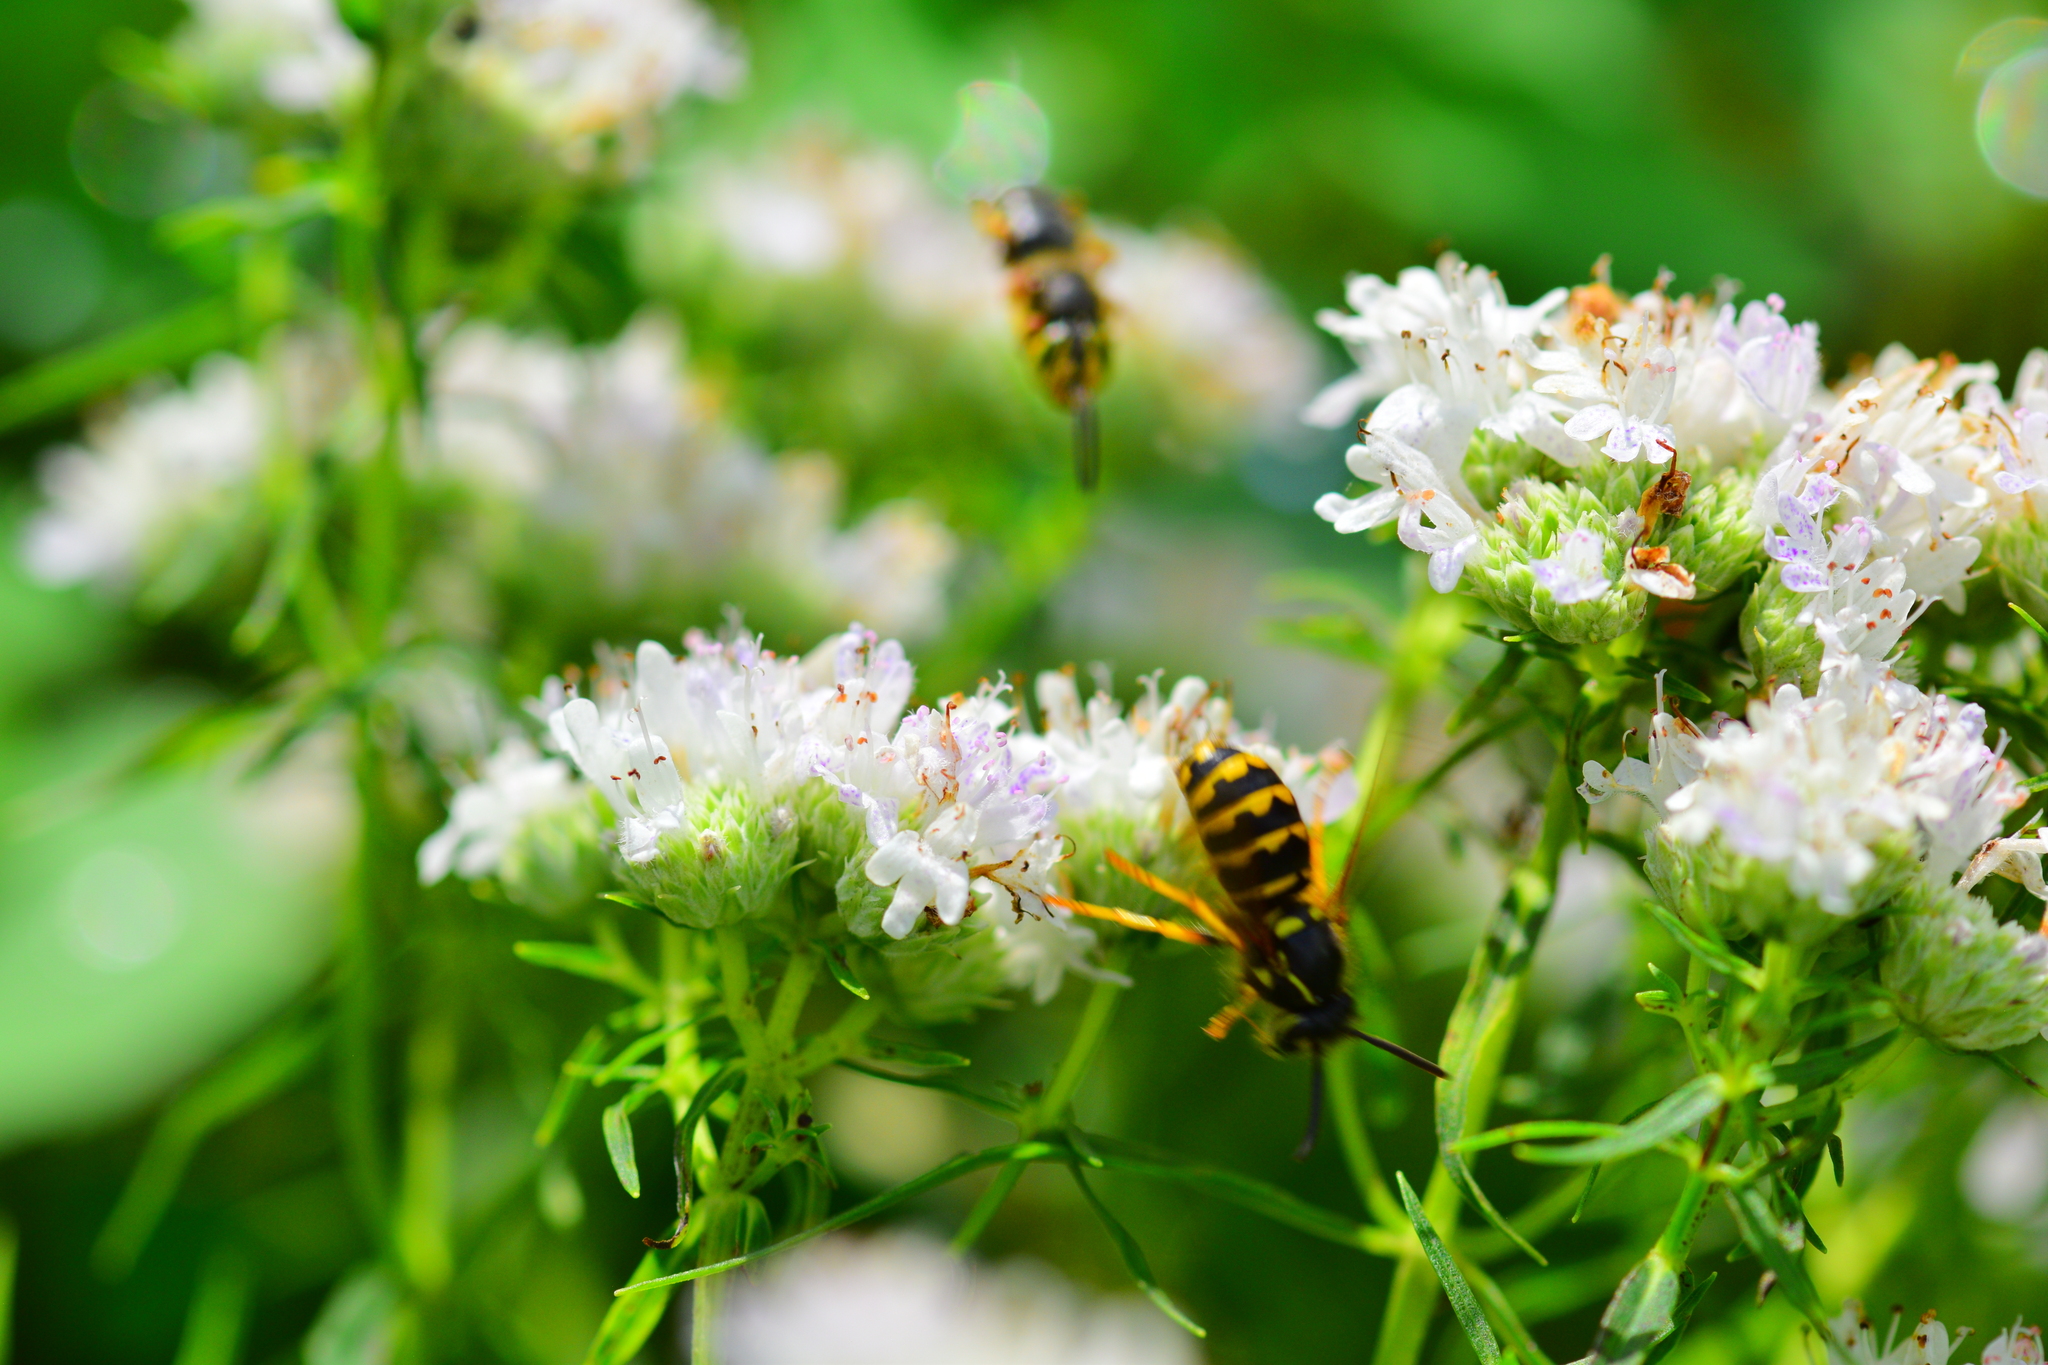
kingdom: Animalia
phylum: Arthropoda
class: Insecta
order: Hymenoptera
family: Vespidae
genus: Dolichovespula
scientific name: Dolichovespula arenaria
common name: Aerial yellowjacket
